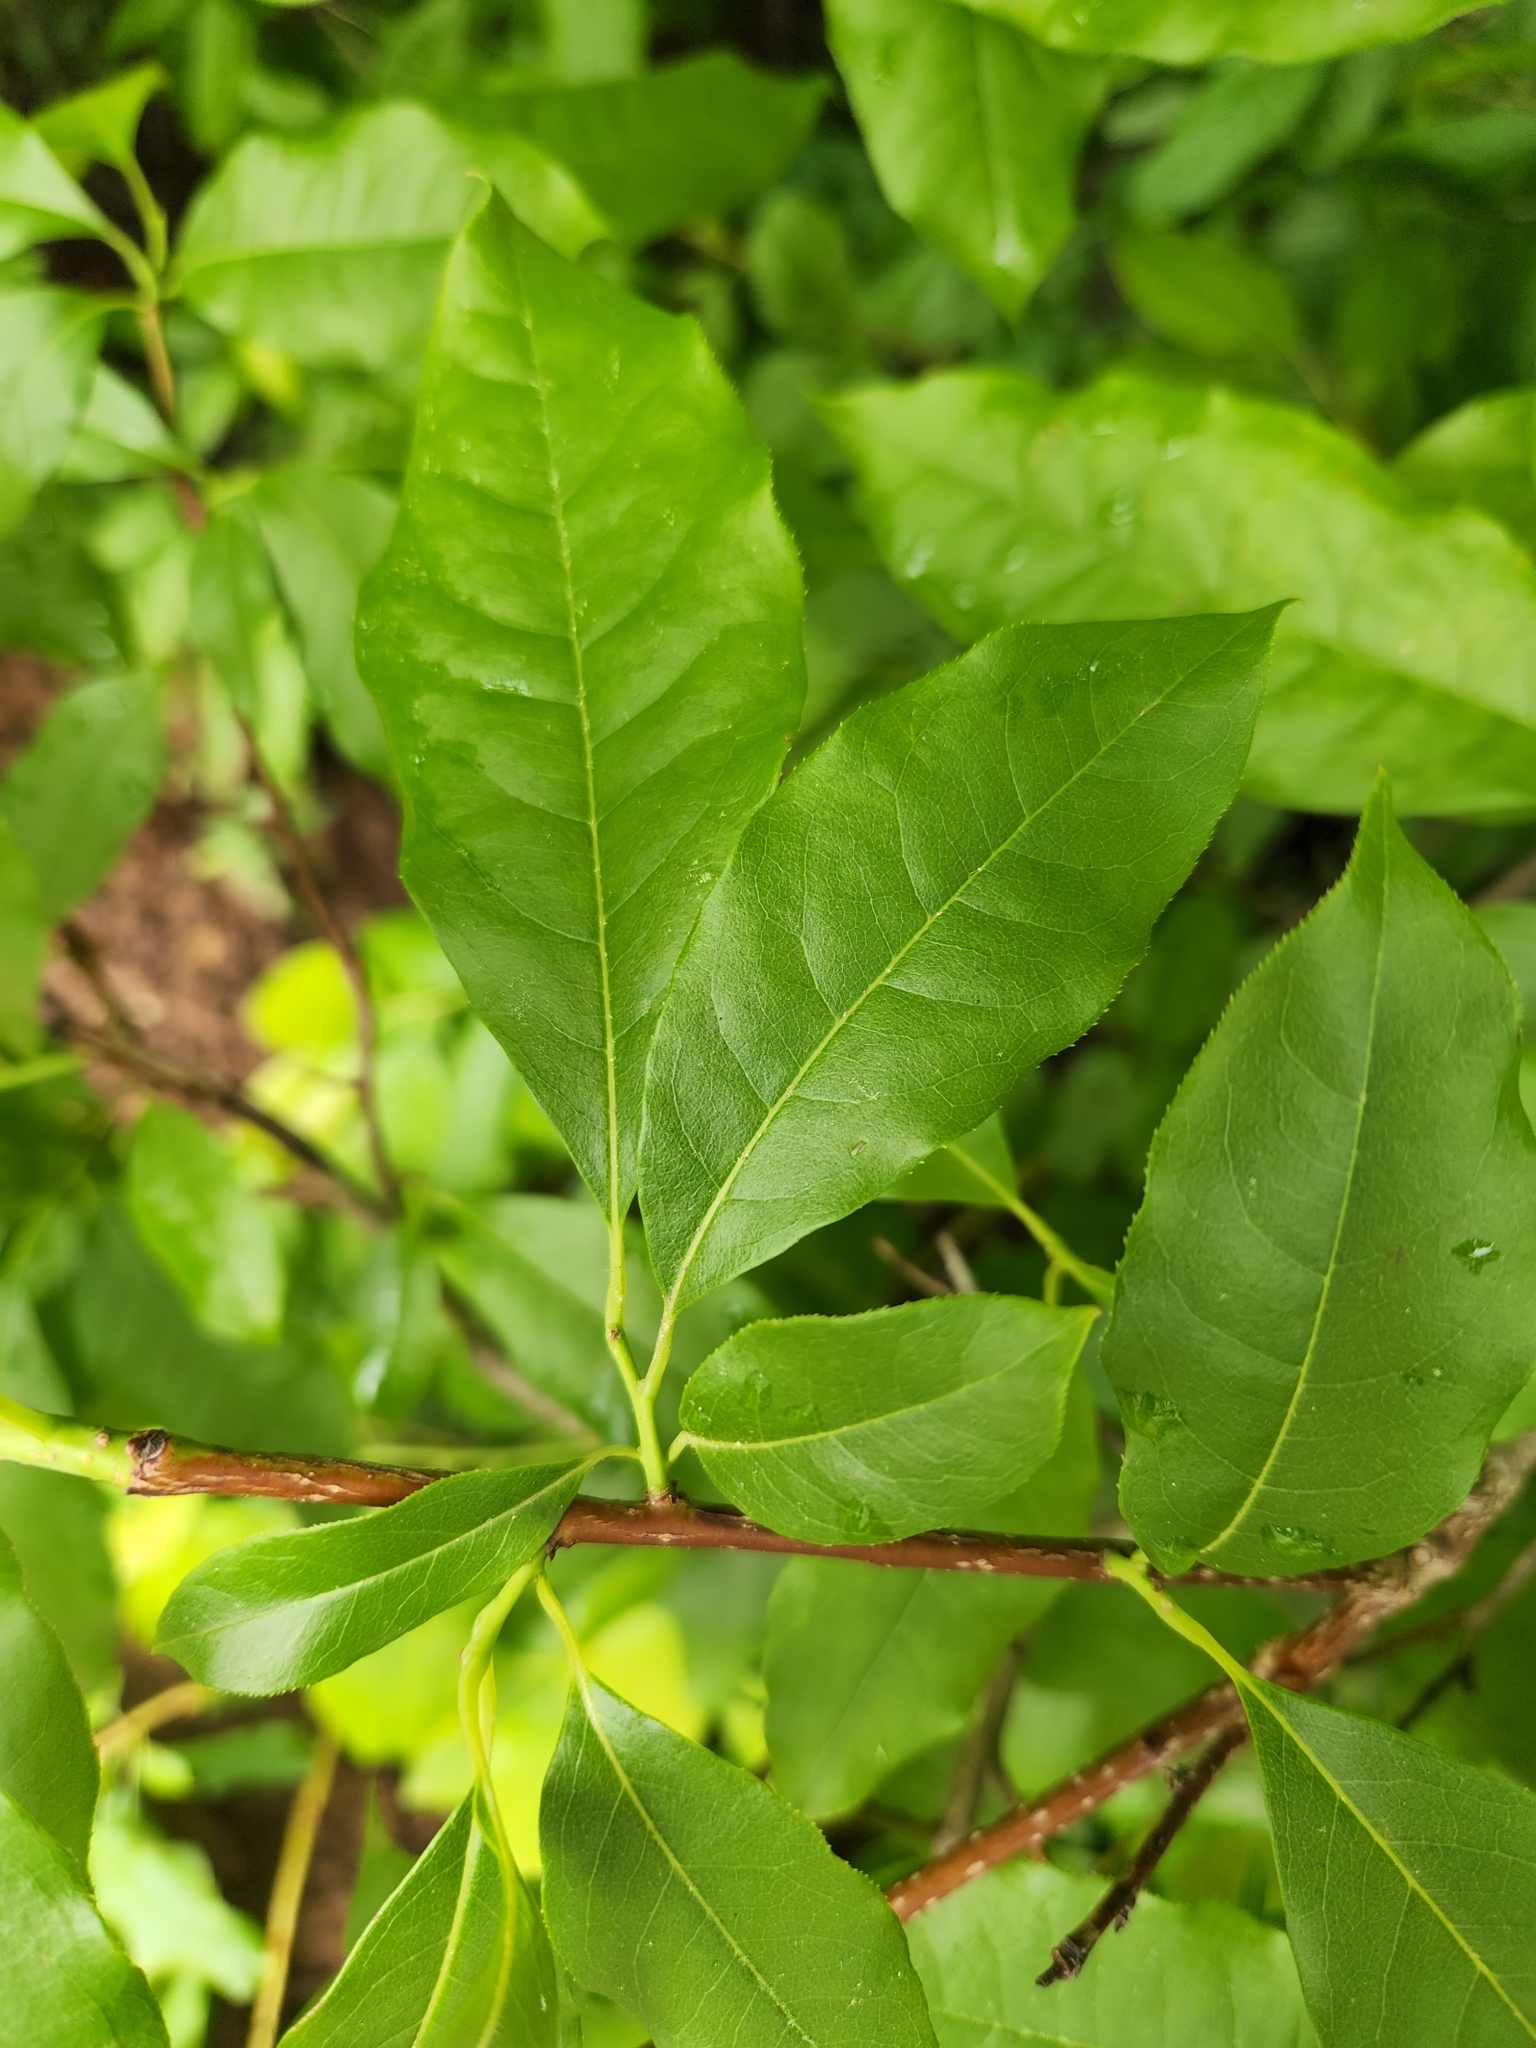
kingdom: Plantae
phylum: Tracheophyta
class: Magnoliopsida
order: Ericales
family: Ericaceae
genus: Oxydendrum
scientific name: Oxydendrum arboreum
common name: Sourwood
